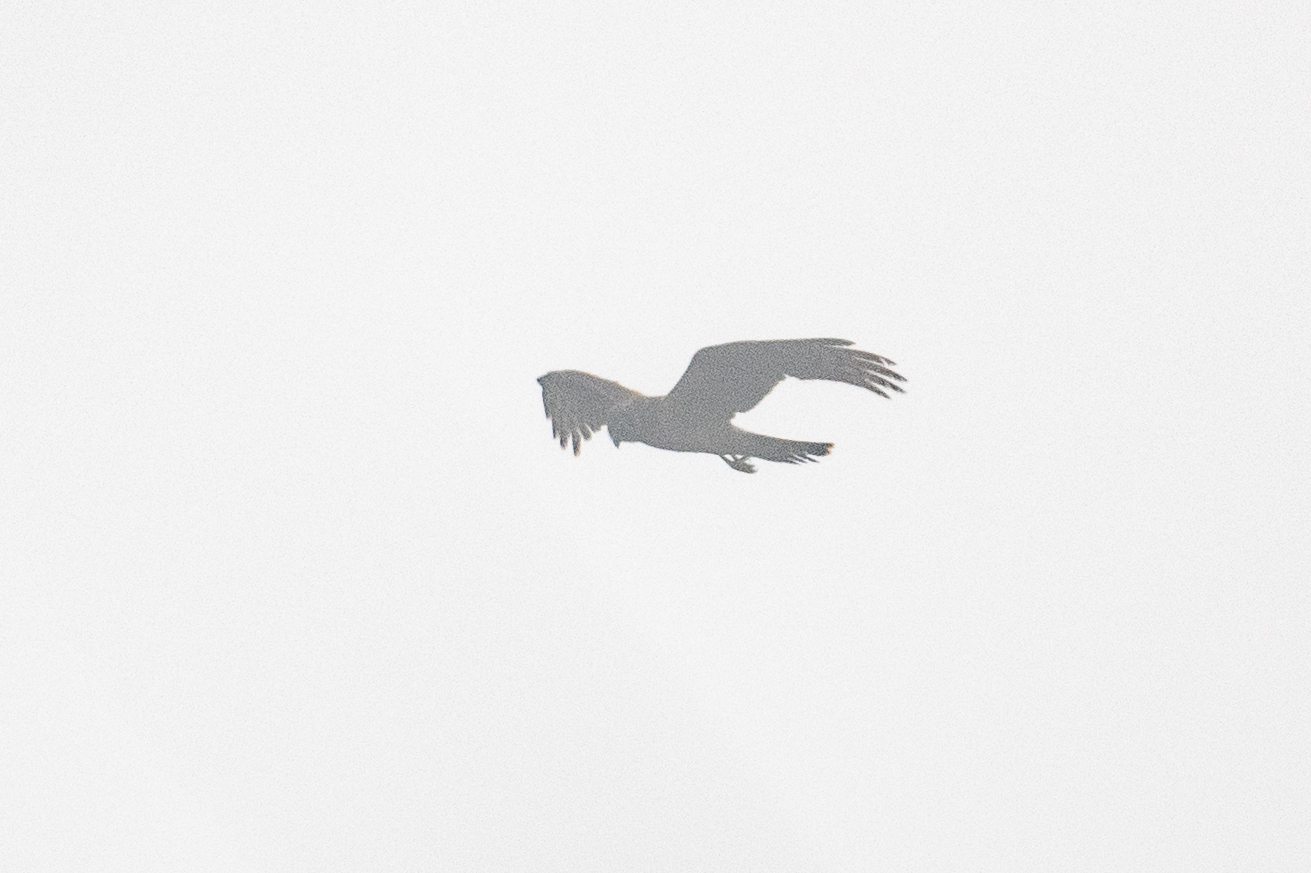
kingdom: Animalia
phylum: Chordata
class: Aves
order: Accipitriformes
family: Accipitridae
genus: Circus
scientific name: Circus cyaneus
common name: Hen harrier
